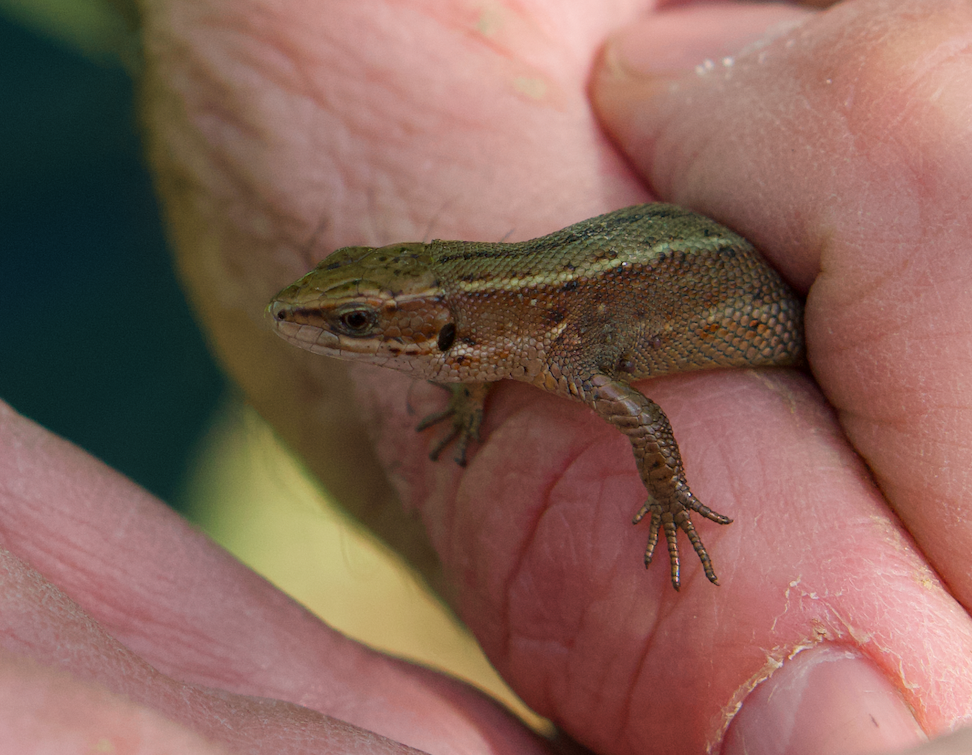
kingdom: Animalia
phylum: Chordata
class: Squamata
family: Lacertidae
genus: Zootoca
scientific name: Zootoca vivipara
